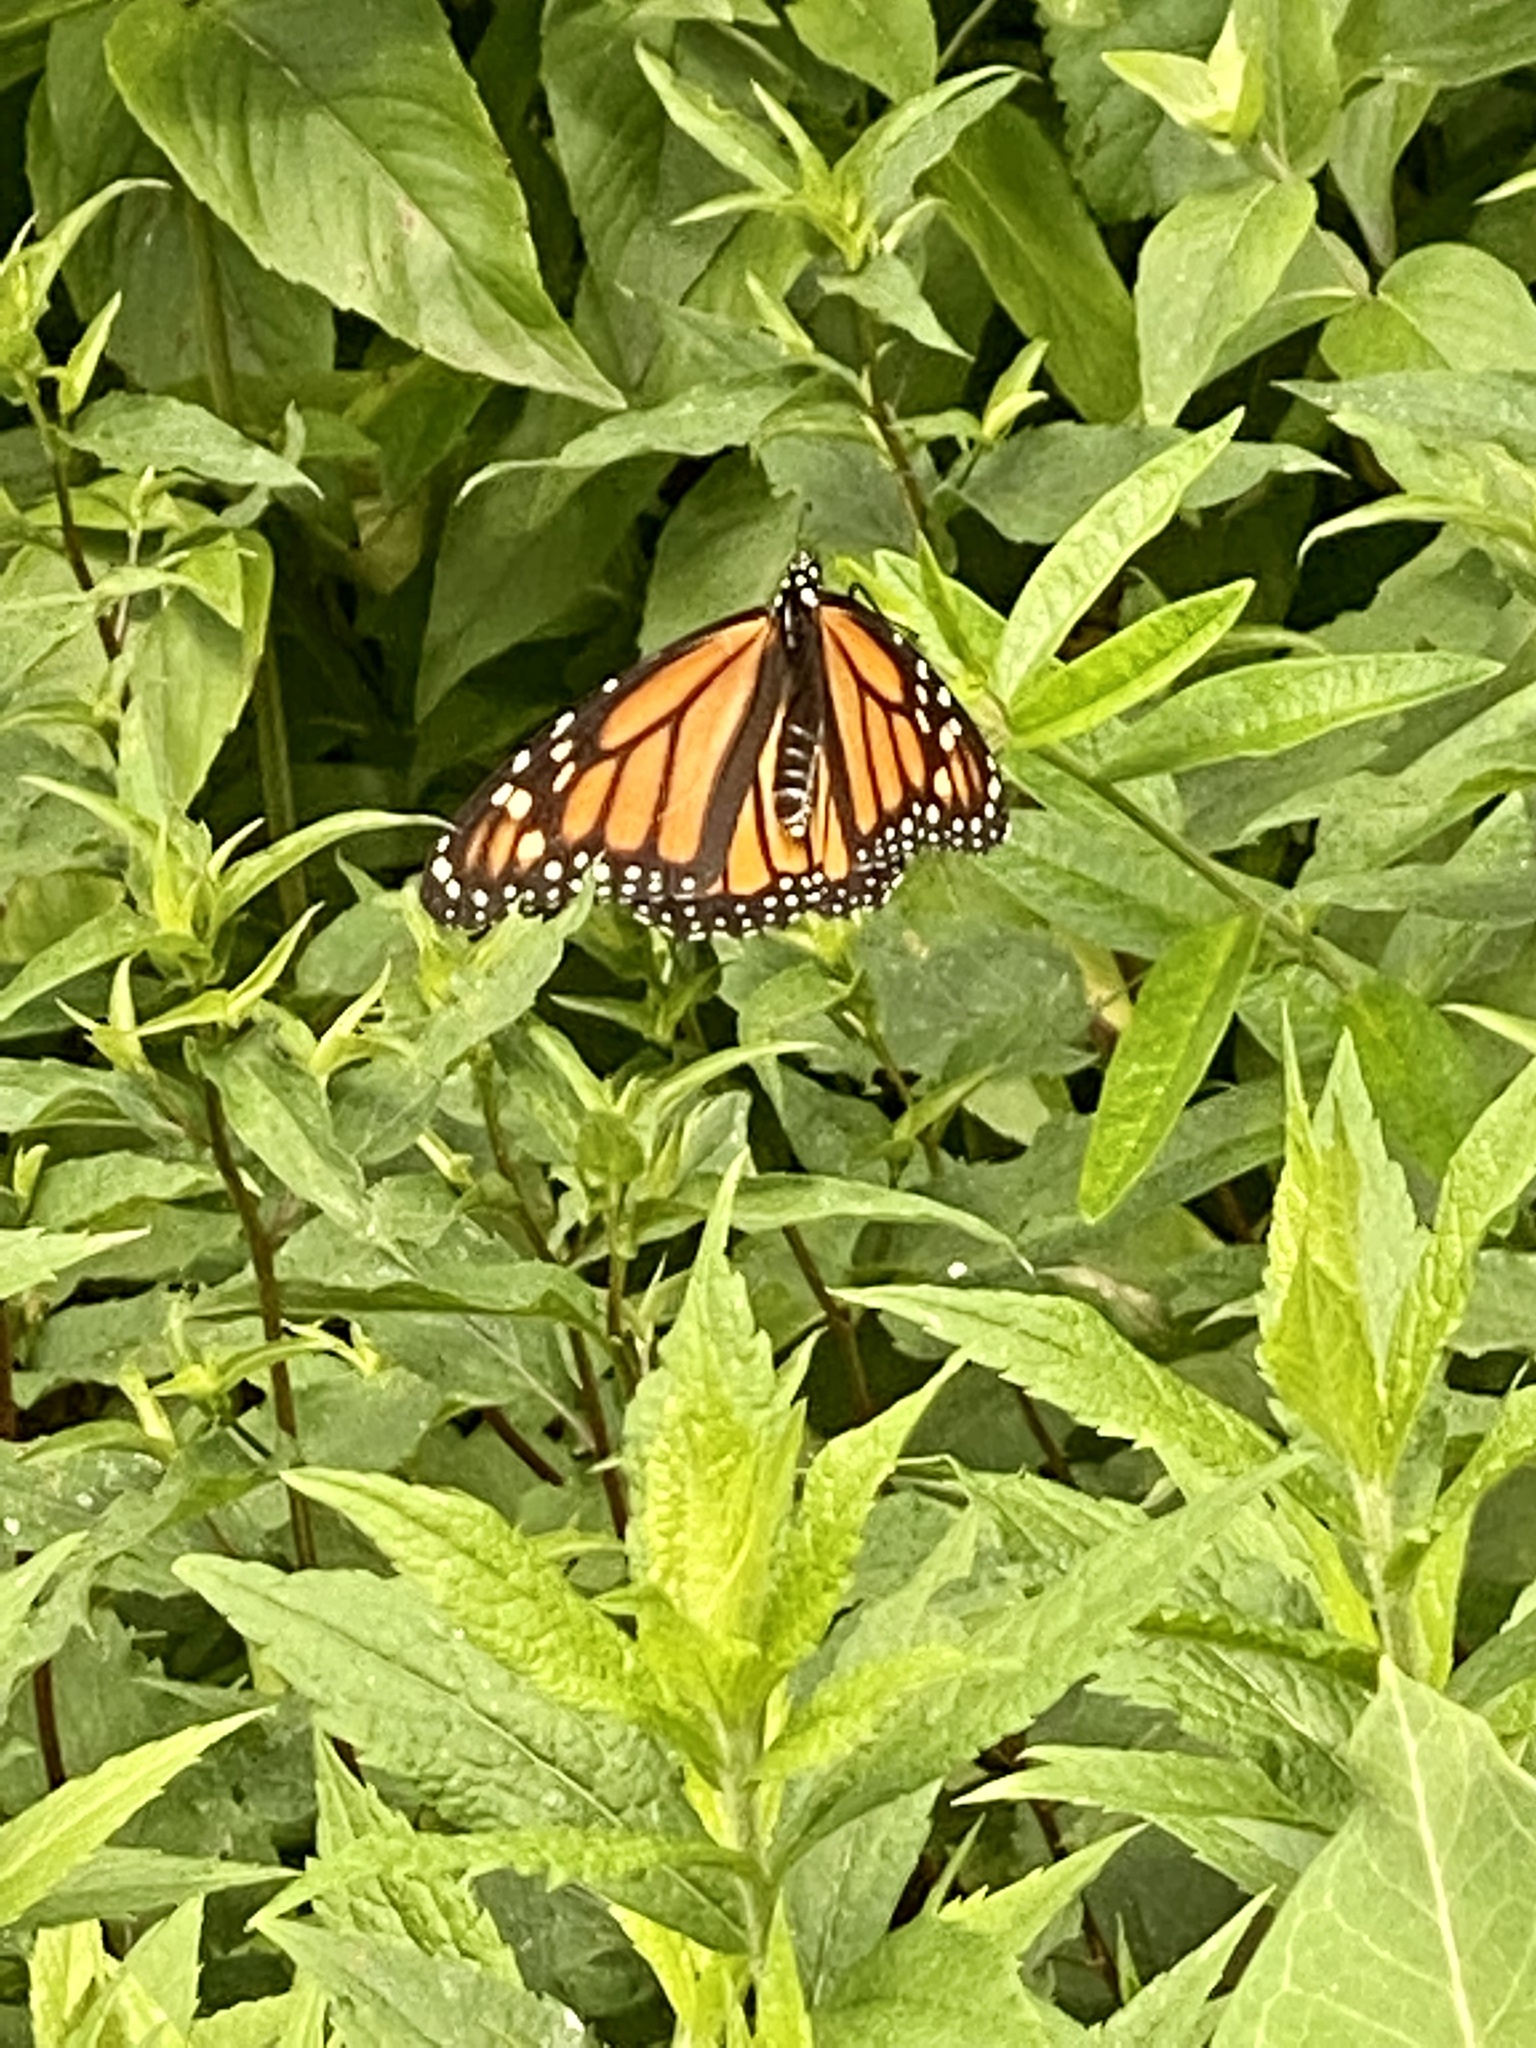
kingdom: Animalia
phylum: Arthropoda
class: Insecta
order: Lepidoptera
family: Nymphalidae
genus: Danaus
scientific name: Danaus plexippus
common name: Monarch
